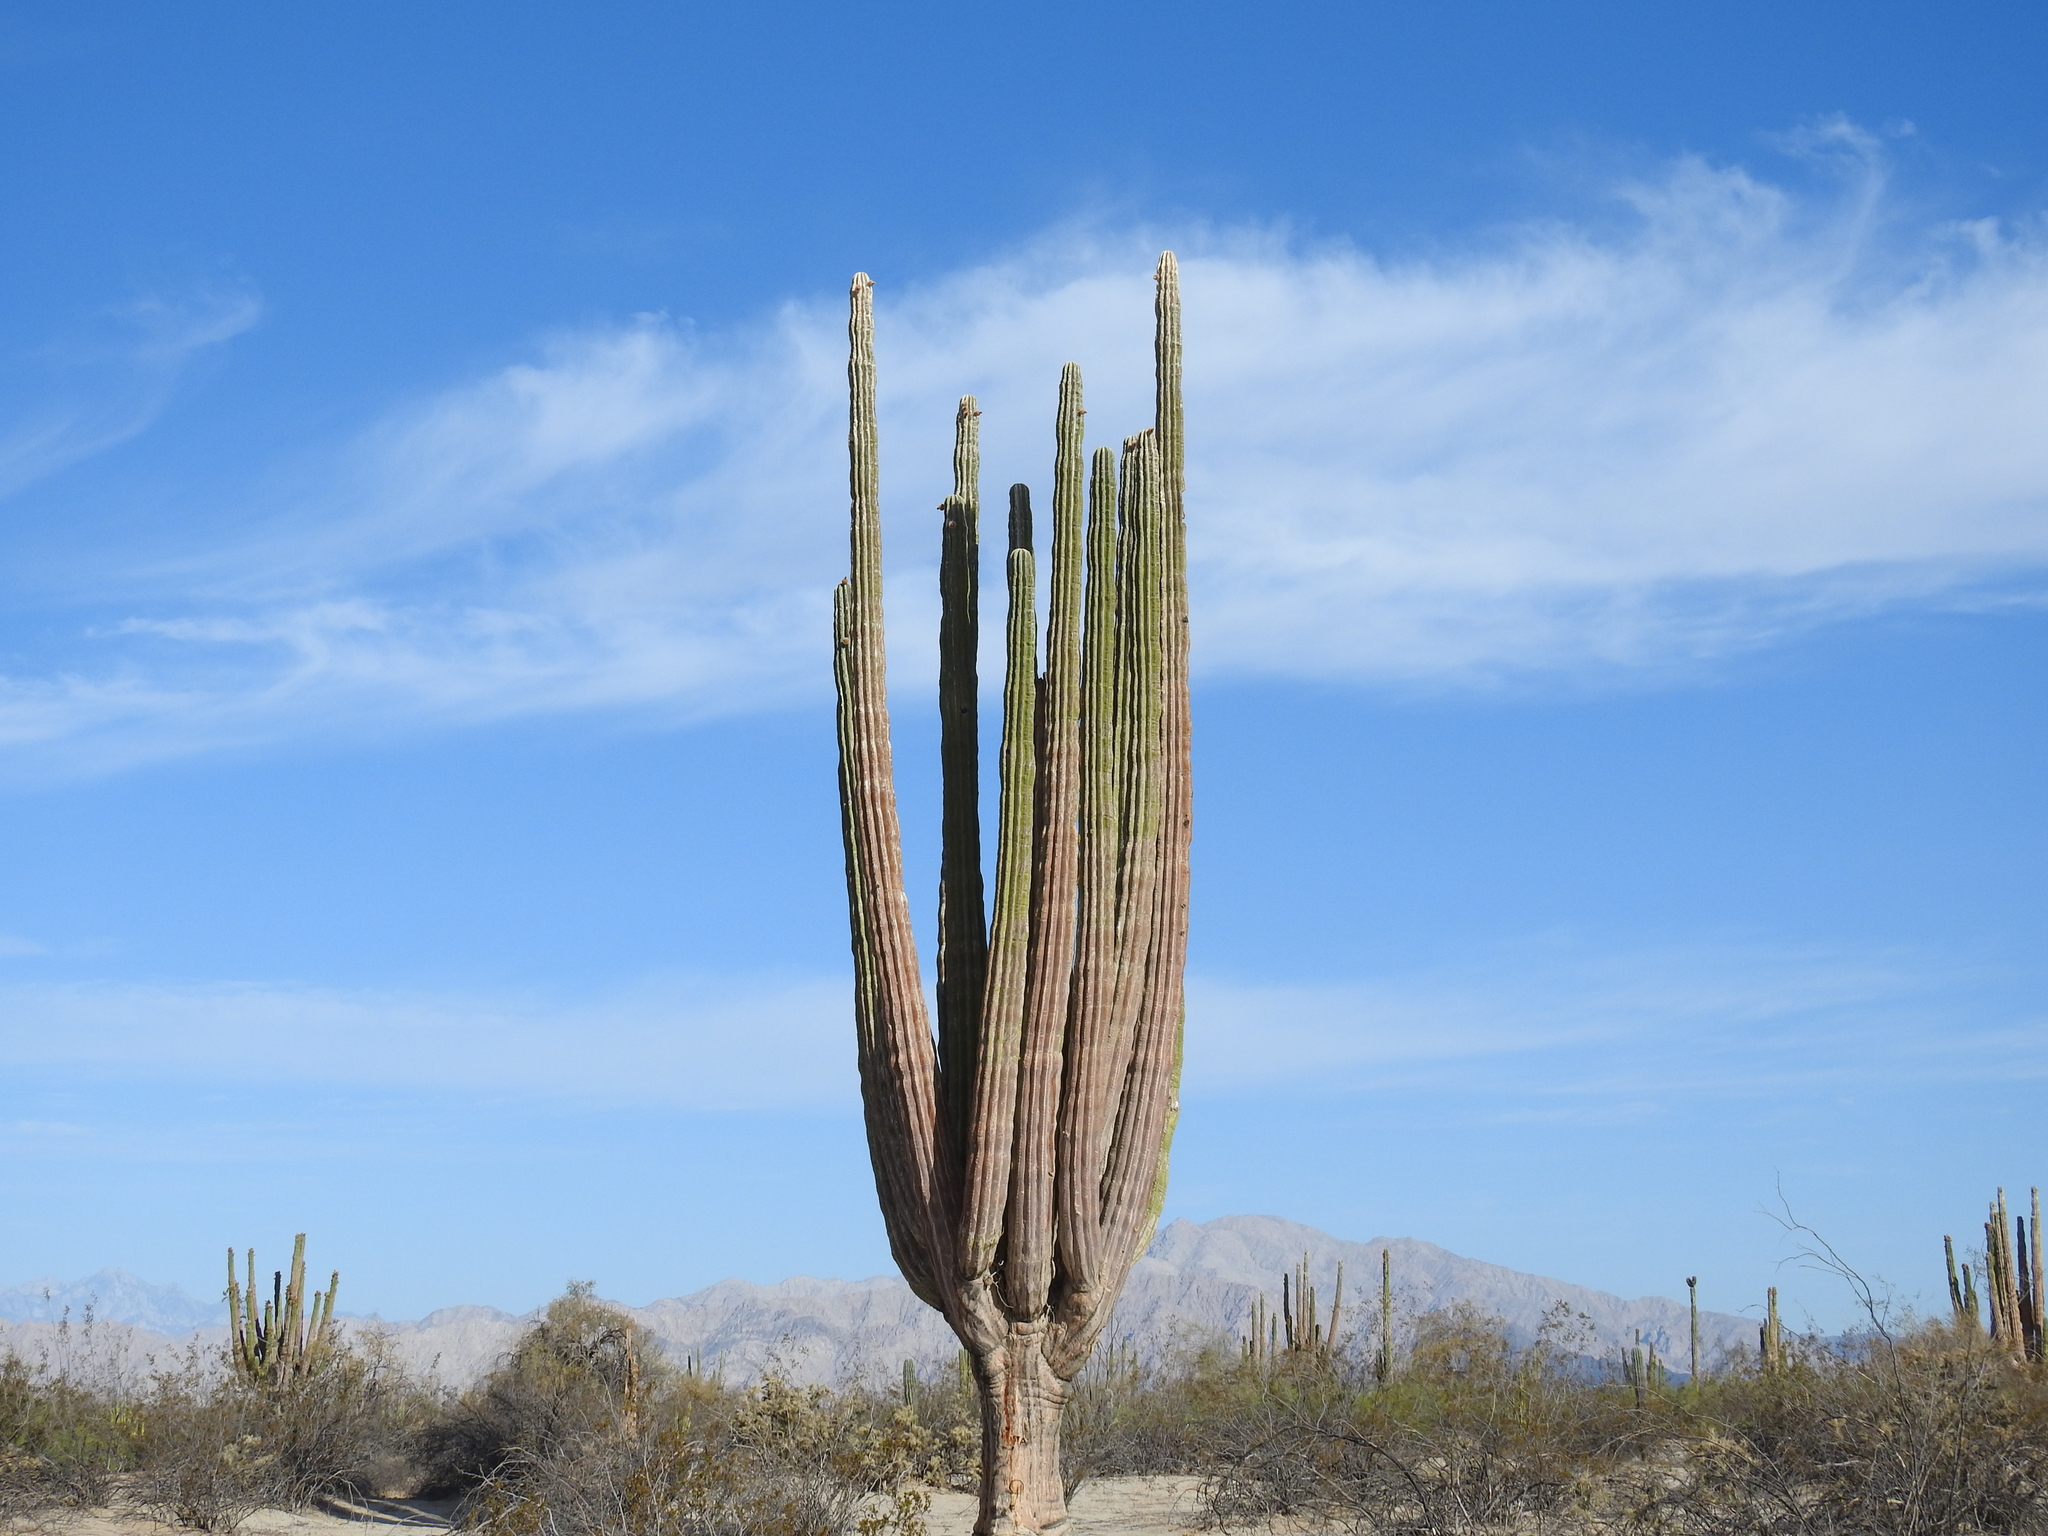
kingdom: Plantae
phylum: Tracheophyta
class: Magnoliopsida
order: Caryophyllales
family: Cactaceae
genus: Pachycereus
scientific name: Pachycereus pringlei
